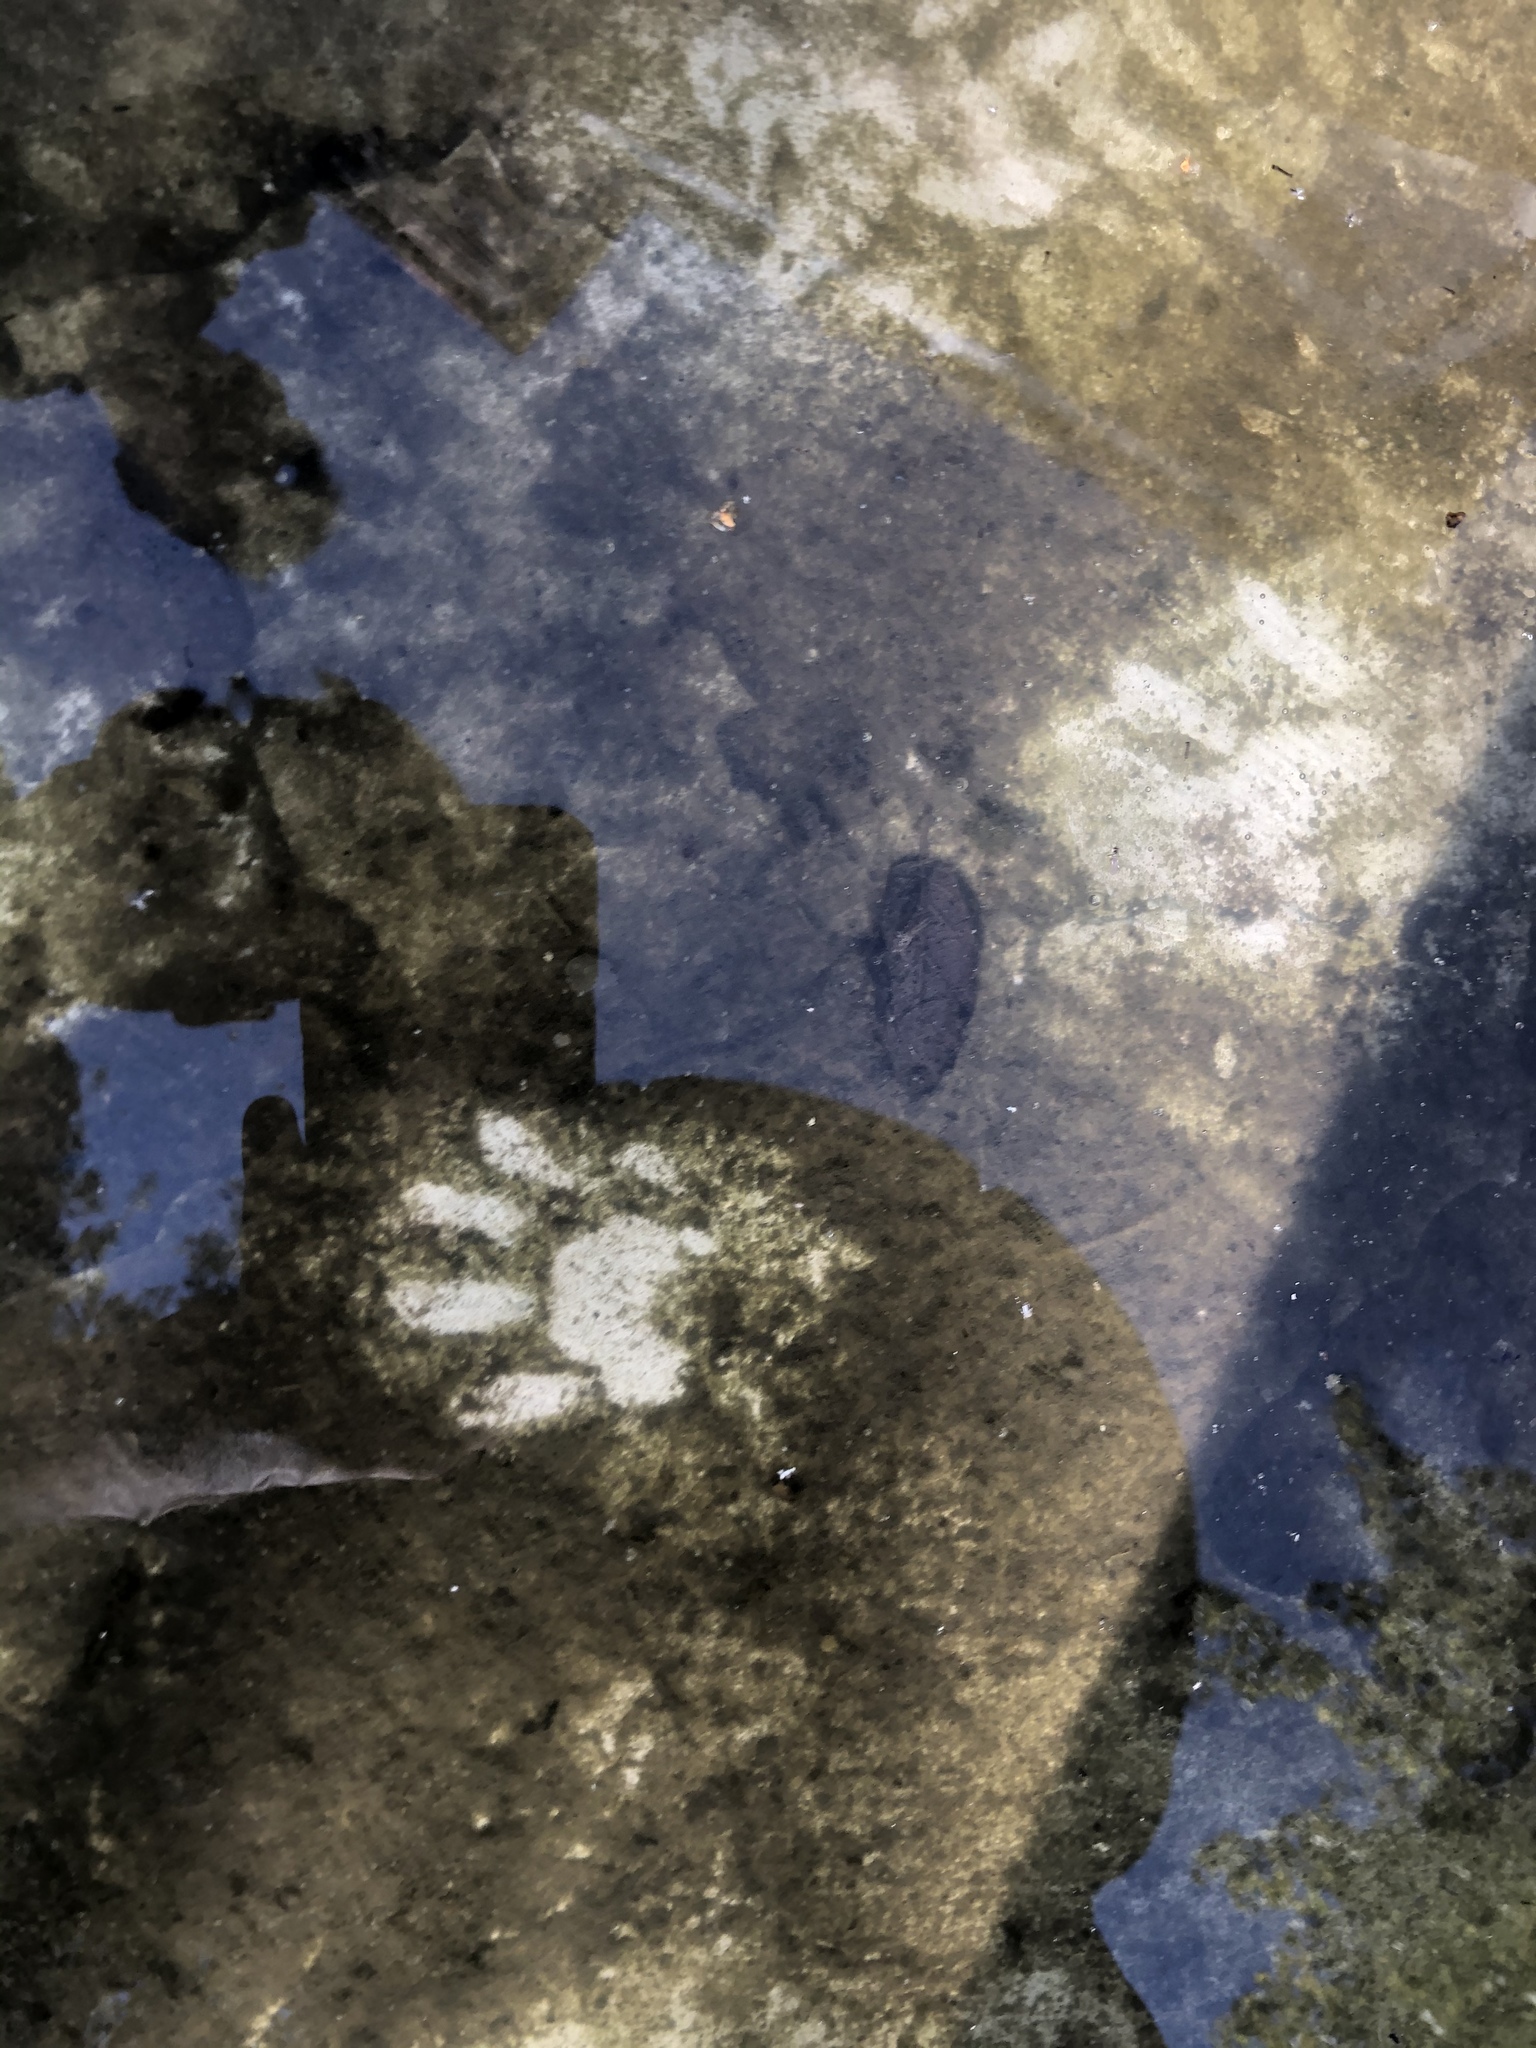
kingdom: Animalia
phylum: Chordata
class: Mammalia
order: Carnivora
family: Procyonidae
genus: Procyon
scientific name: Procyon lotor
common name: Raccoon
